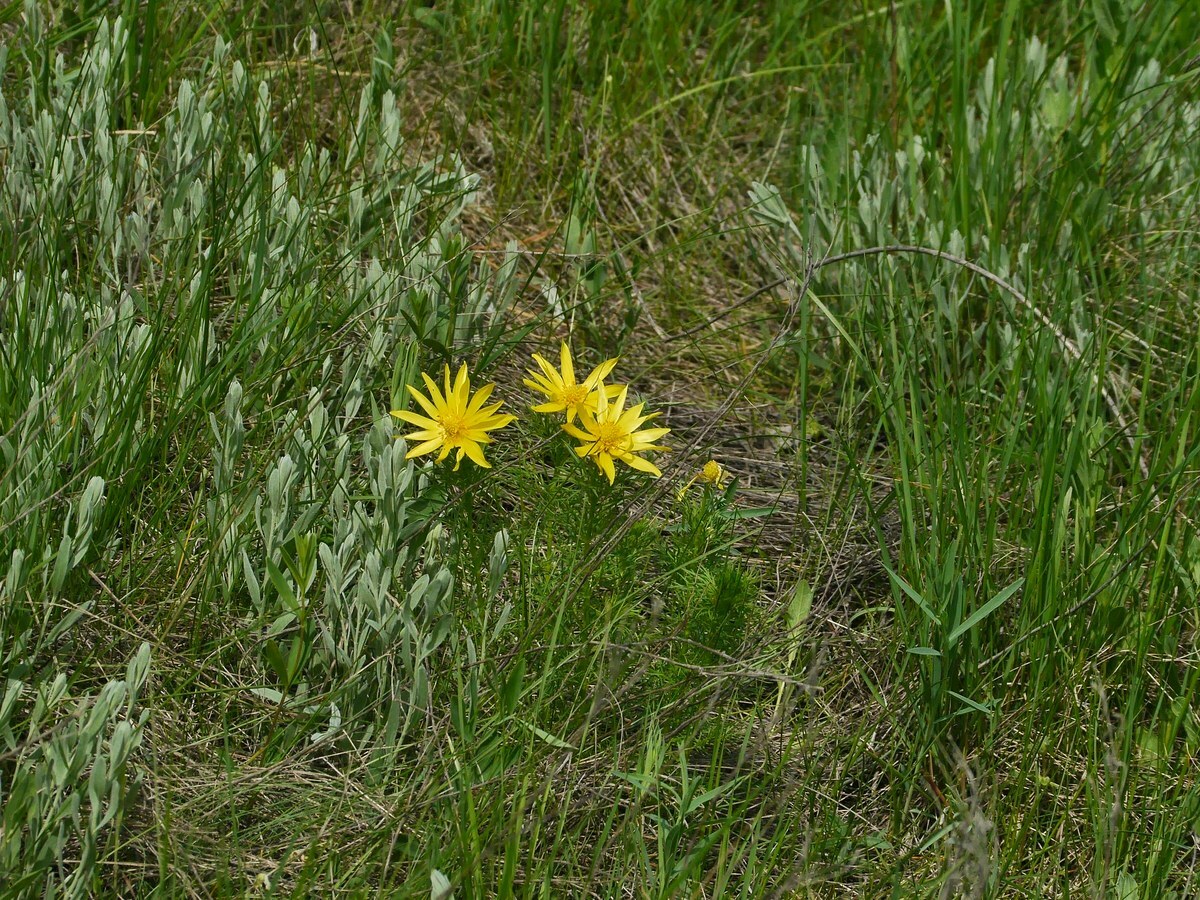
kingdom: Plantae
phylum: Tracheophyta
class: Magnoliopsida
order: Ranunculales
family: Ranunculaceae
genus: Adonis
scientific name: Adonis vernalis
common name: Yellow pheasants-eye
